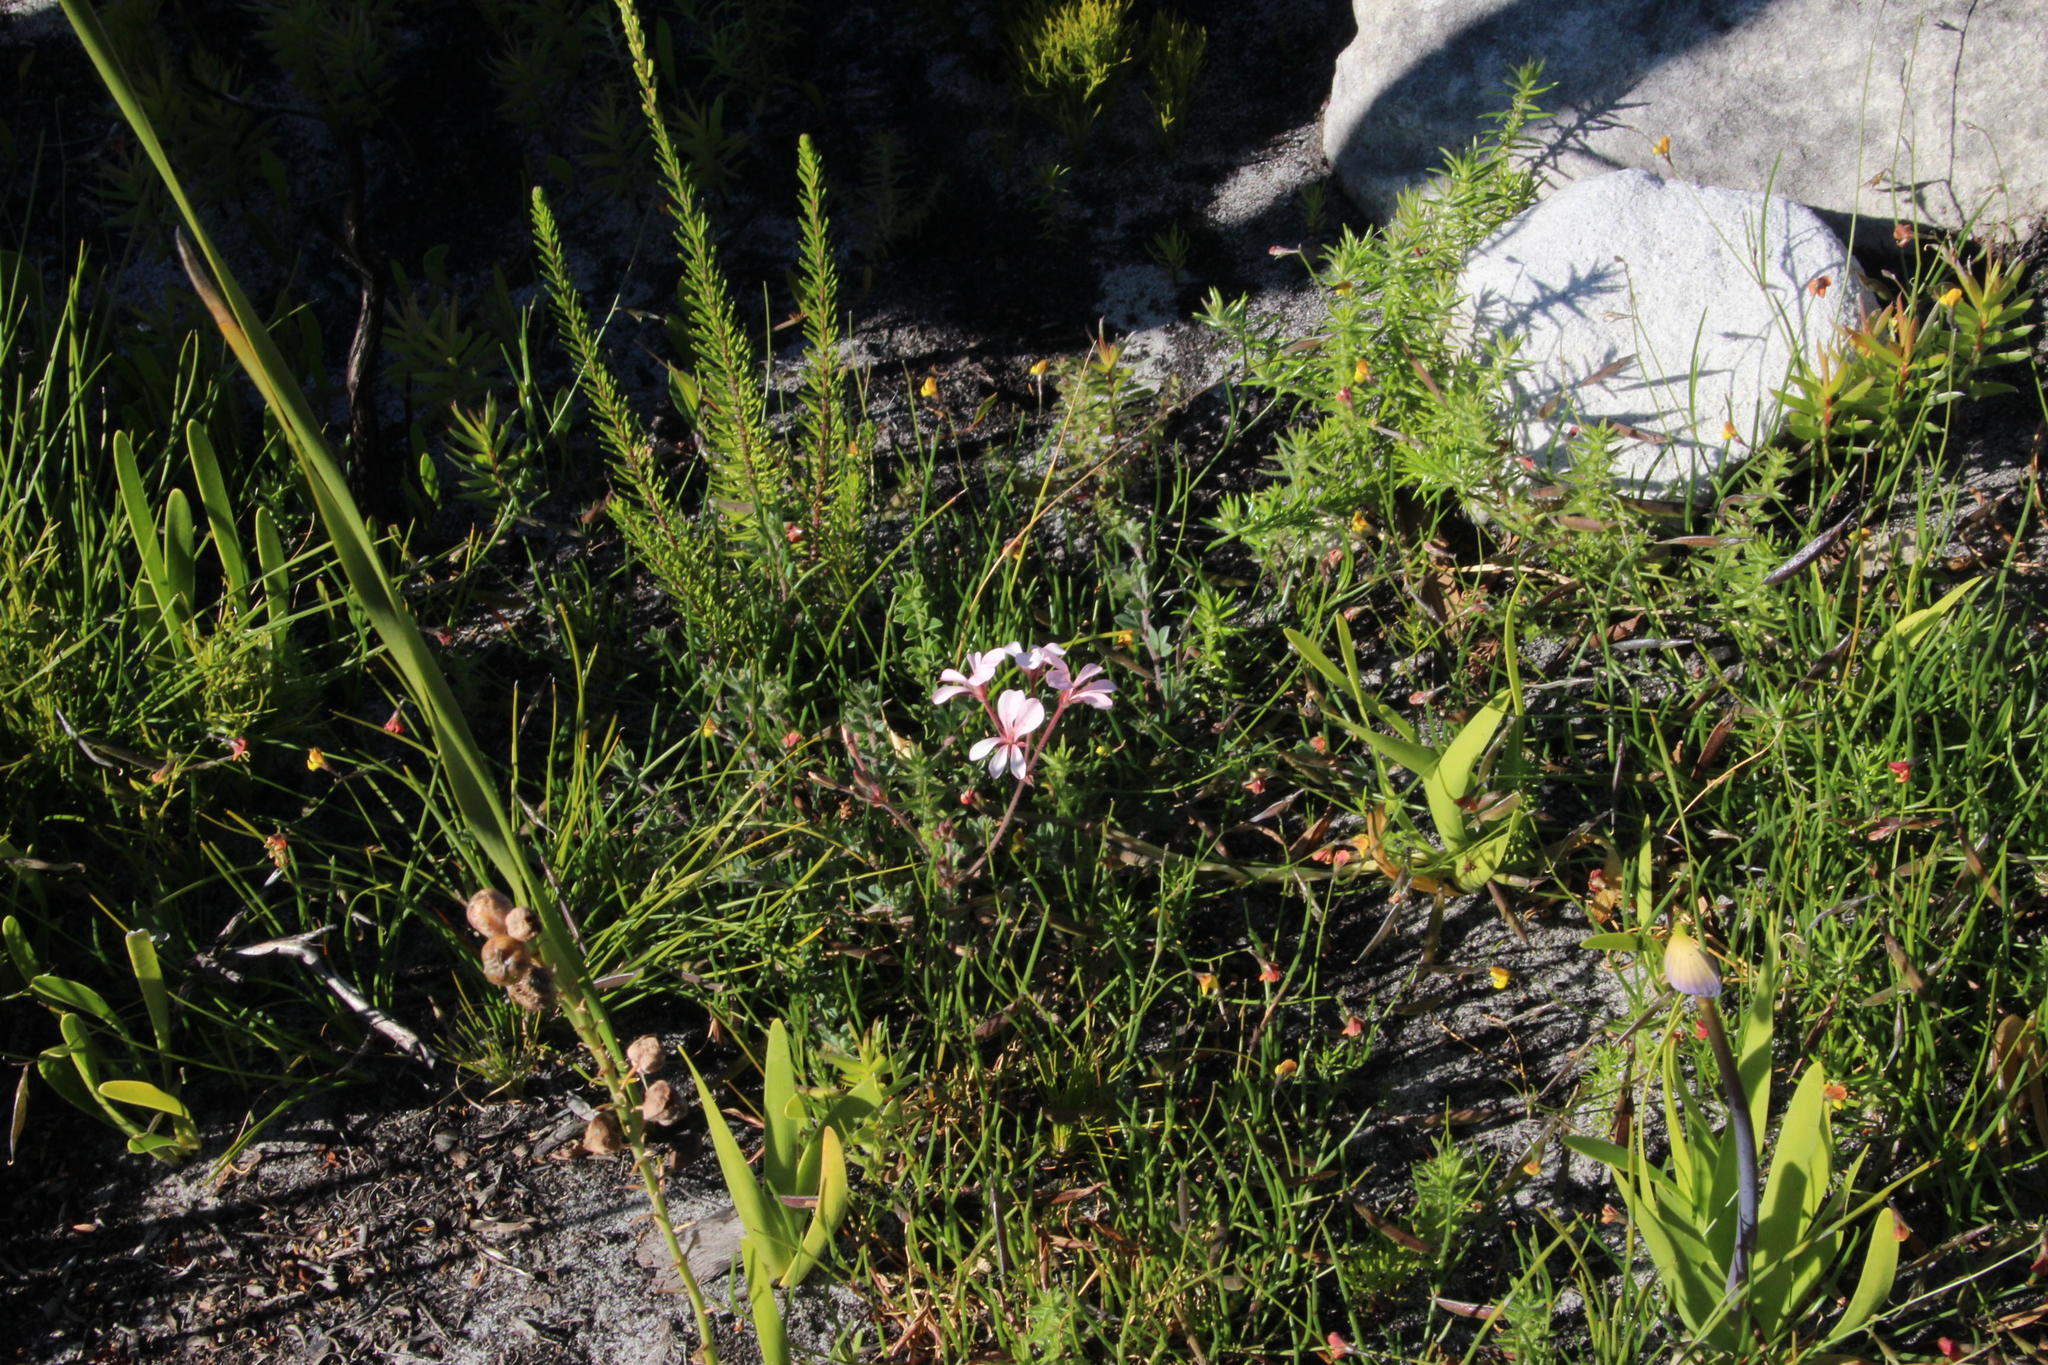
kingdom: Plantae
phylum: Tracheophyta
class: Magnoliopsida
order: Geraniales
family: Geraniaceae
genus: Pelargonium
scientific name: Pelargonium pinnatum
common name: Pinnated pelargonium
